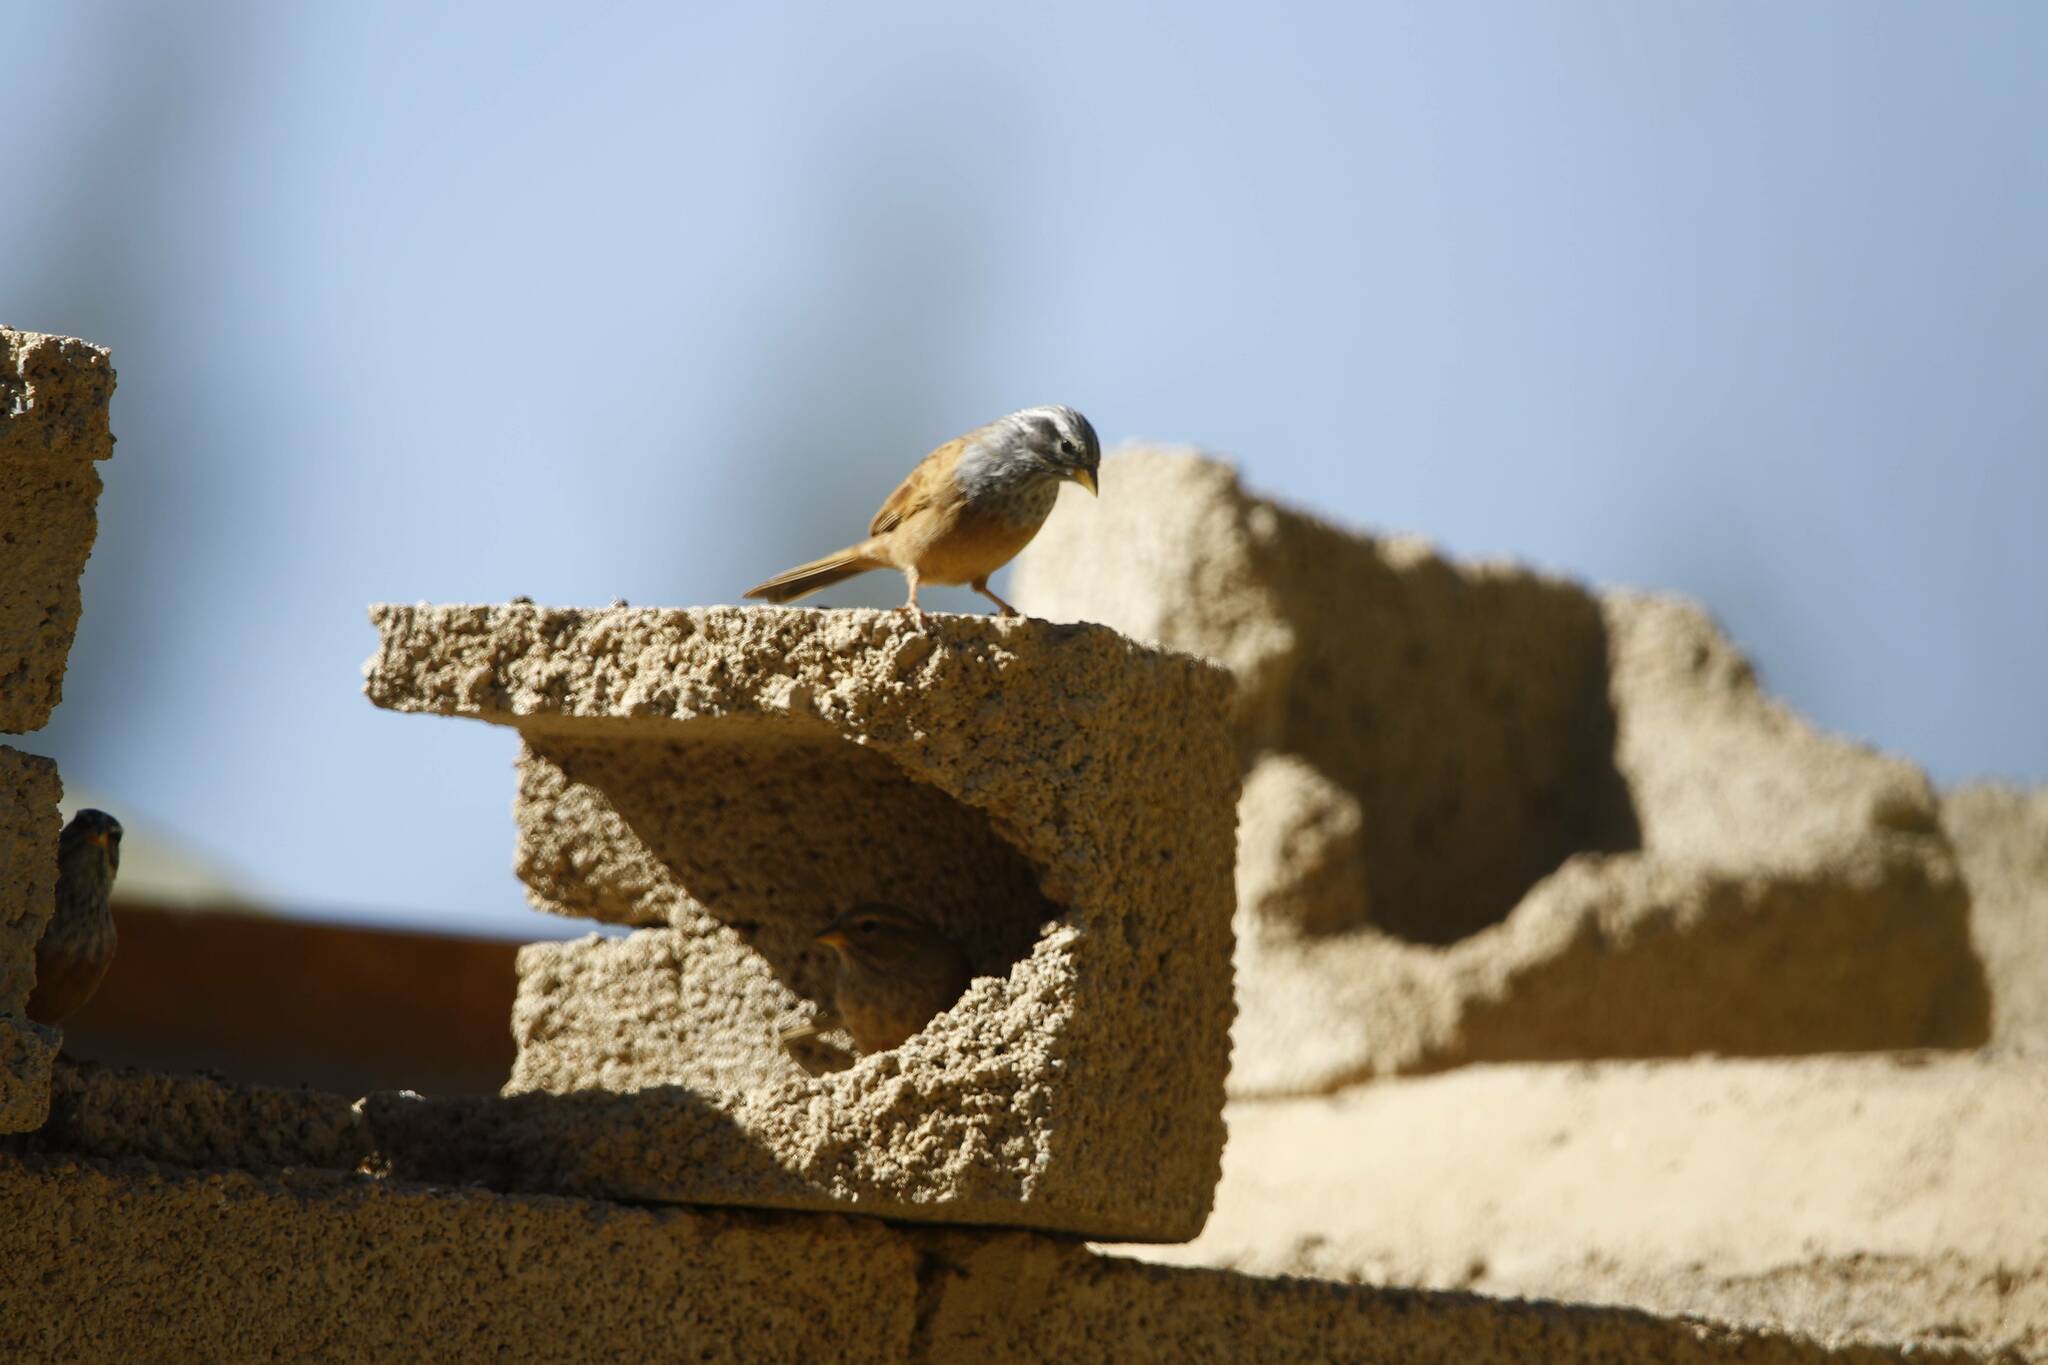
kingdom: Animalia
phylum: Chordata
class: Aves
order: Passeriformes
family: Emberizidae
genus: Emberiza
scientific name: Emberiza sahari
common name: House bunting
